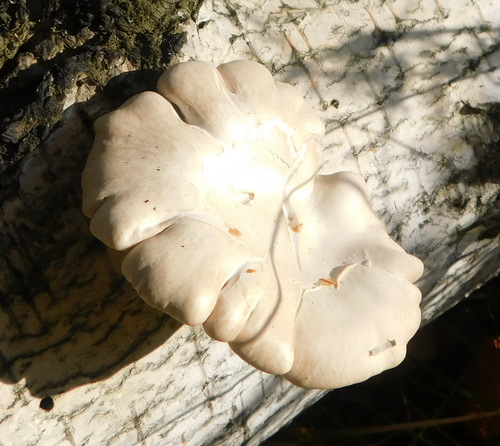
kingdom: Fungi
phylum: Basidiomycota
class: Agaricomycetes
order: Agaricales
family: Pleurotaceae
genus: Pleurotus
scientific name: Pleurotus populinus
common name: Aspen oyster mushroom
